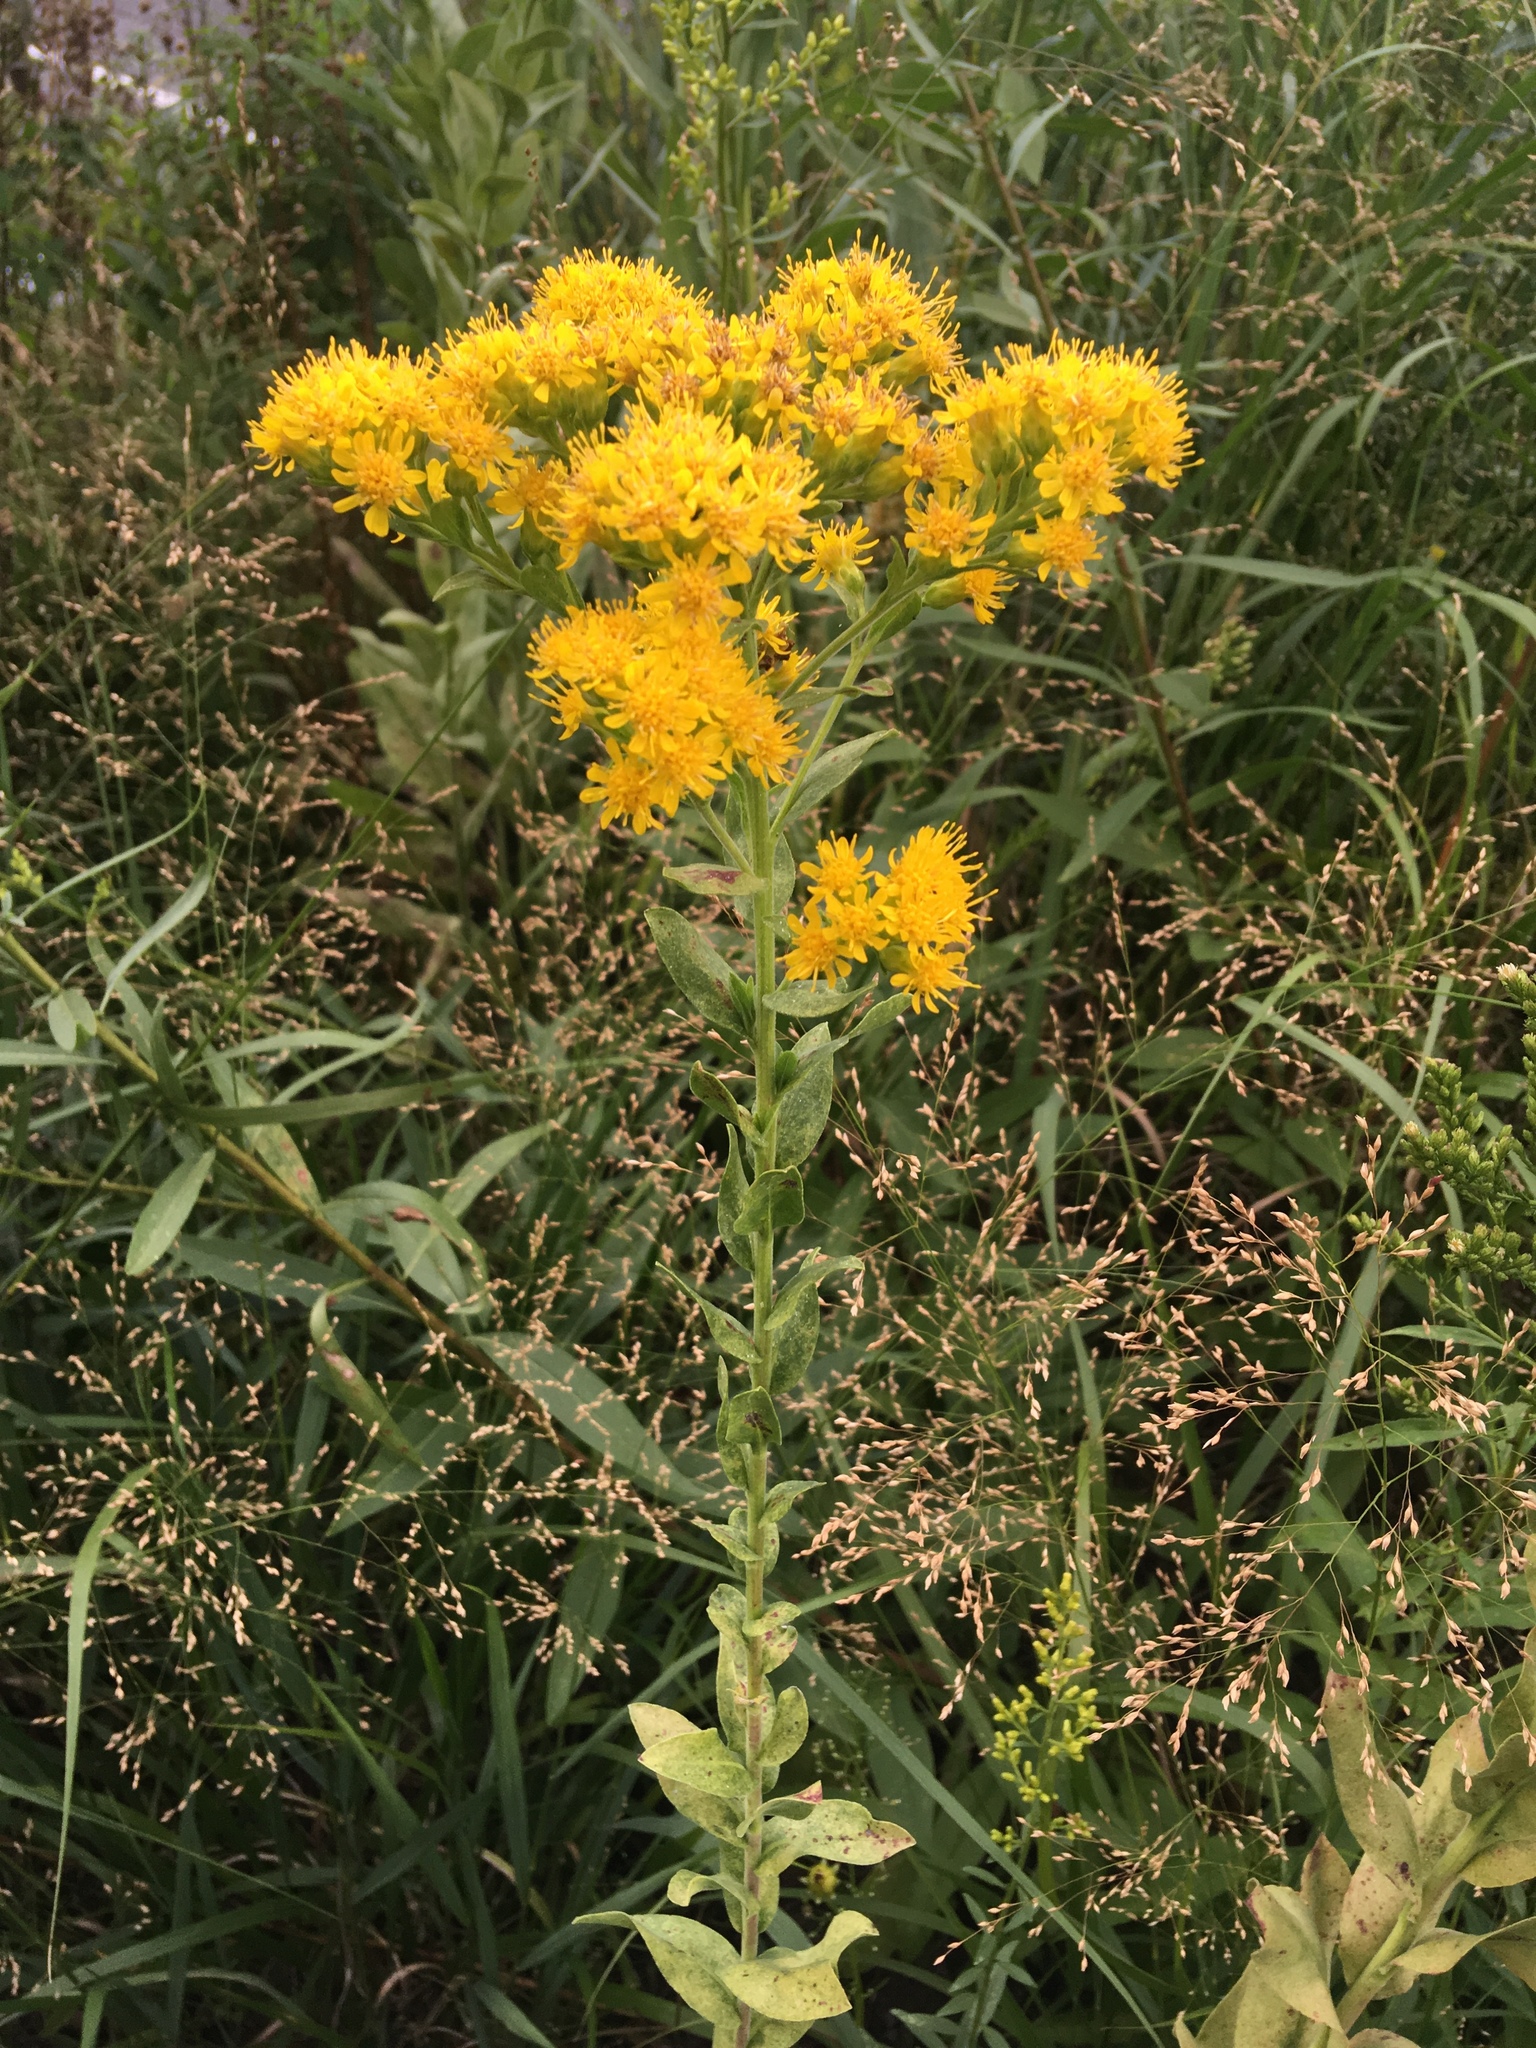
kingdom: Plantae
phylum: Tracheophyta
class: Magnoliopsida
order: Asterales
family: Asteraceae
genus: Solidago
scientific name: Solidago rigida
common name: Rigid goldenrod
